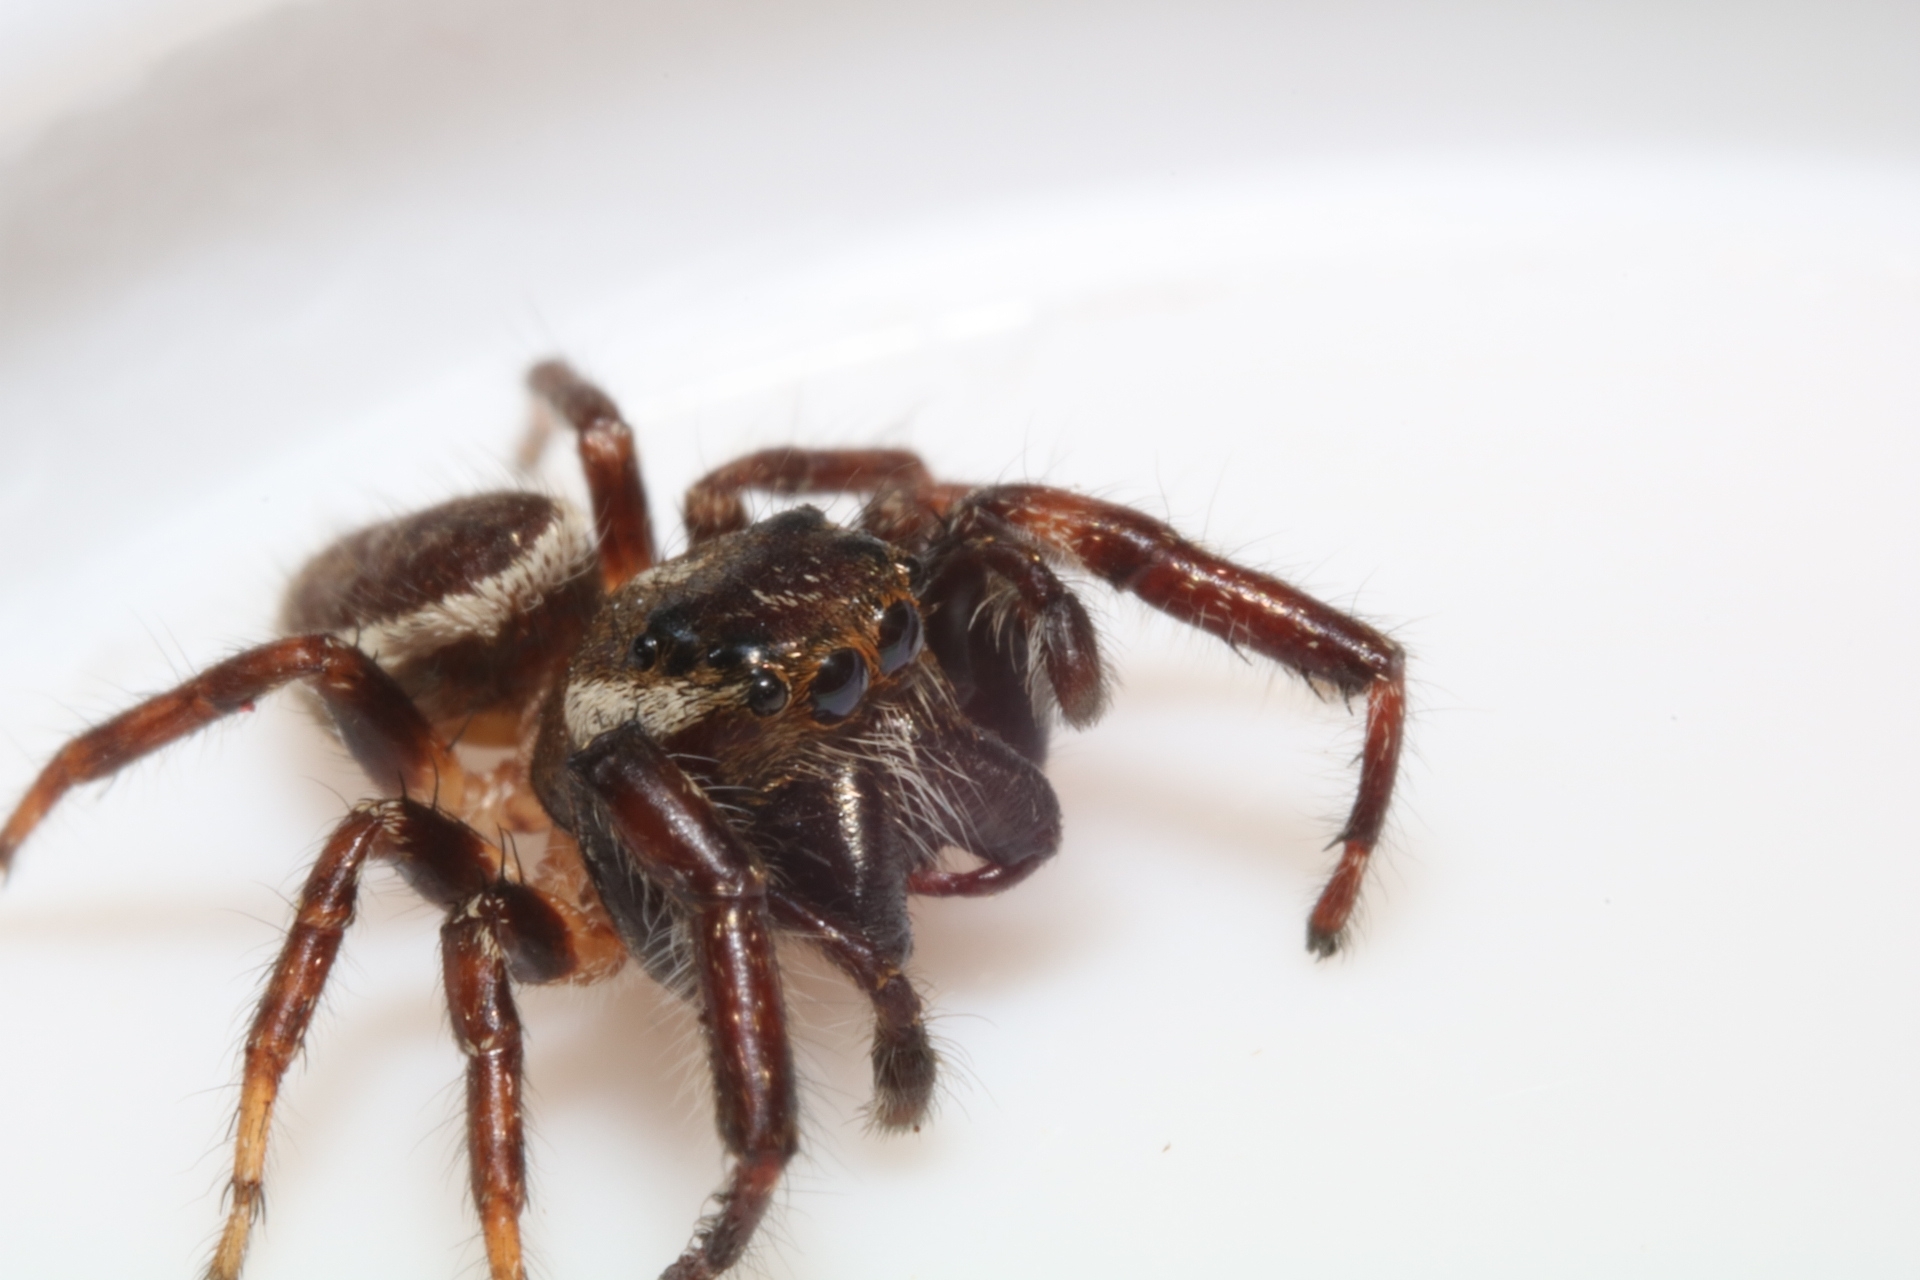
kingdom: Animalia
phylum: Arthropoda
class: Arachnida
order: Araneae
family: Salticidae
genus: Eris
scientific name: Eris militaris
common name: Bronze jumper
